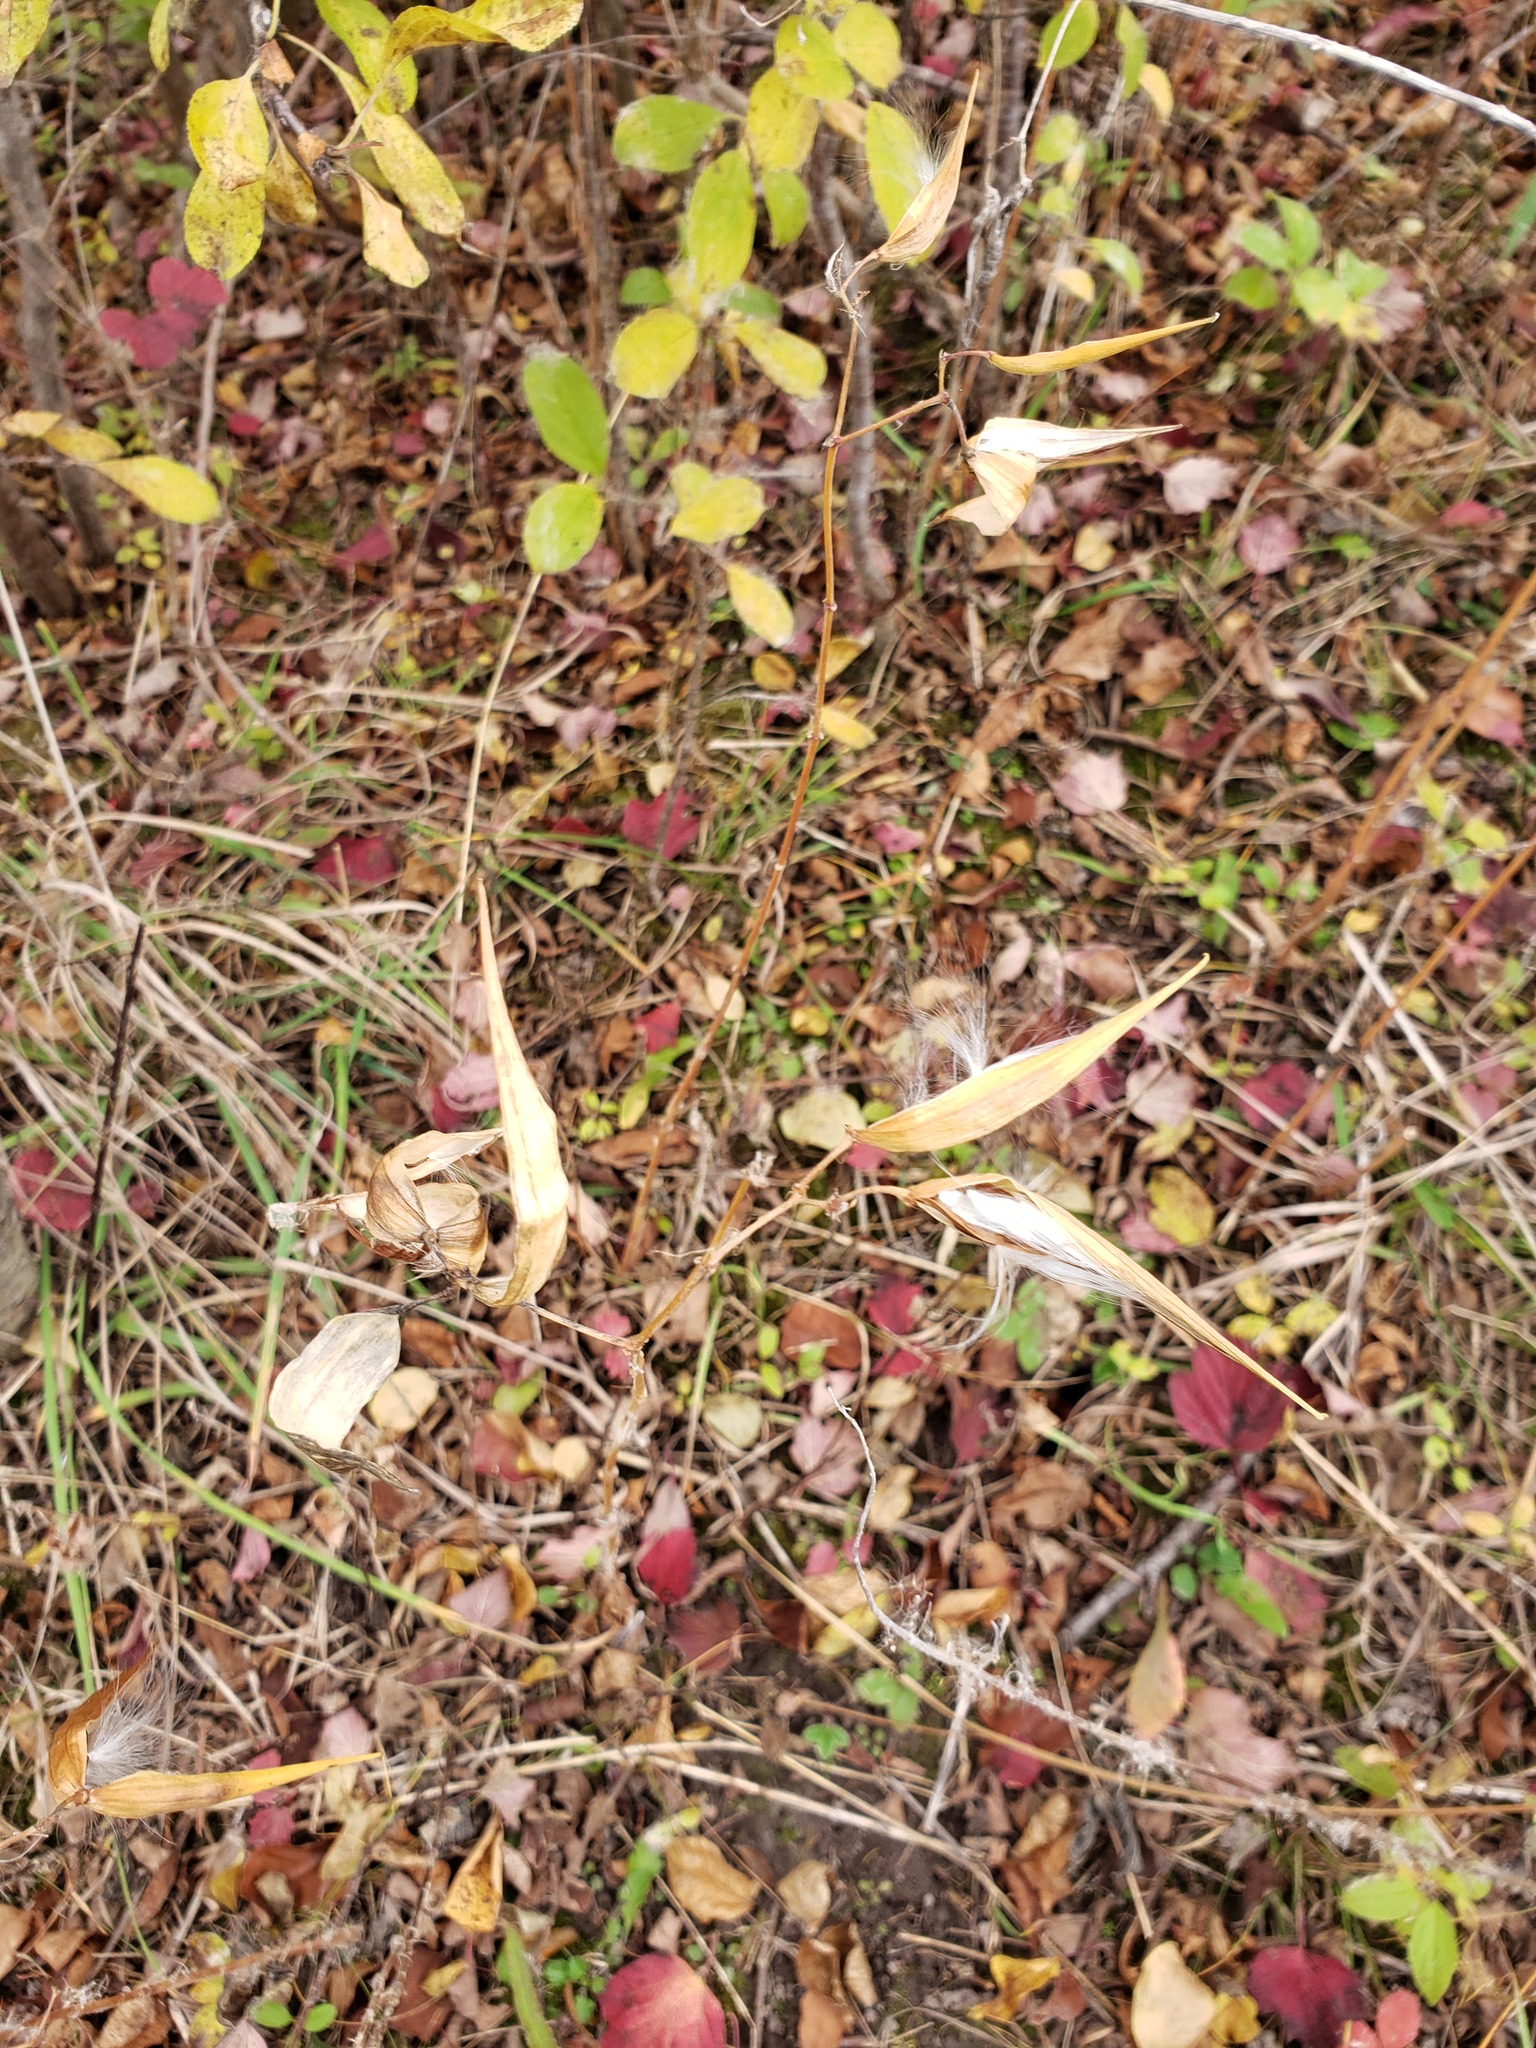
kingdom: Plantae
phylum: Tracheophyta
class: Magnoliopsida
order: Gentianales
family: Apocynaceae
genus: Vincetoxicum
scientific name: Vincetoxicum rossicum
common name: Dog-strangling vine
